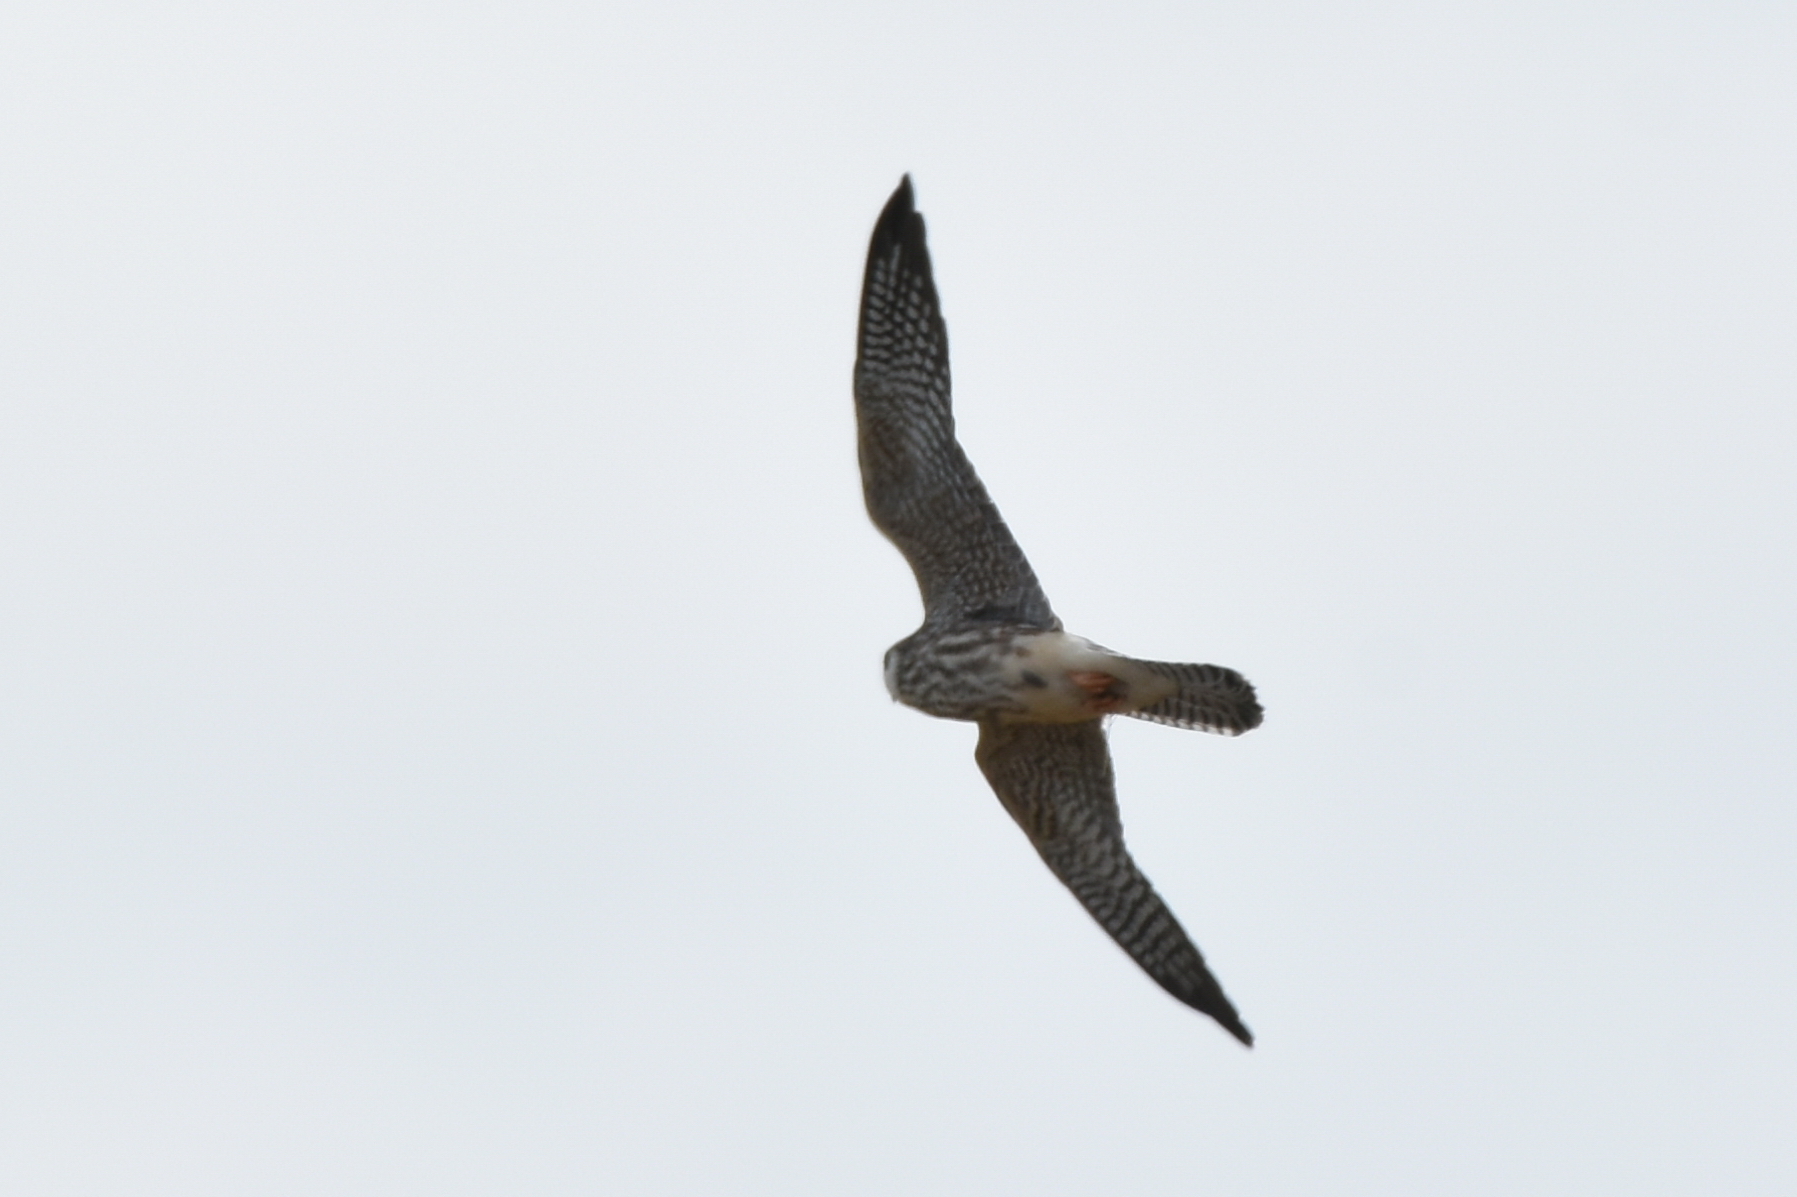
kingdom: Animalia
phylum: Chordata
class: Aves
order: Falconiformes
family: Falconidae
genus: Falco
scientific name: Falco subbuteo
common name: Eurasian hobby
